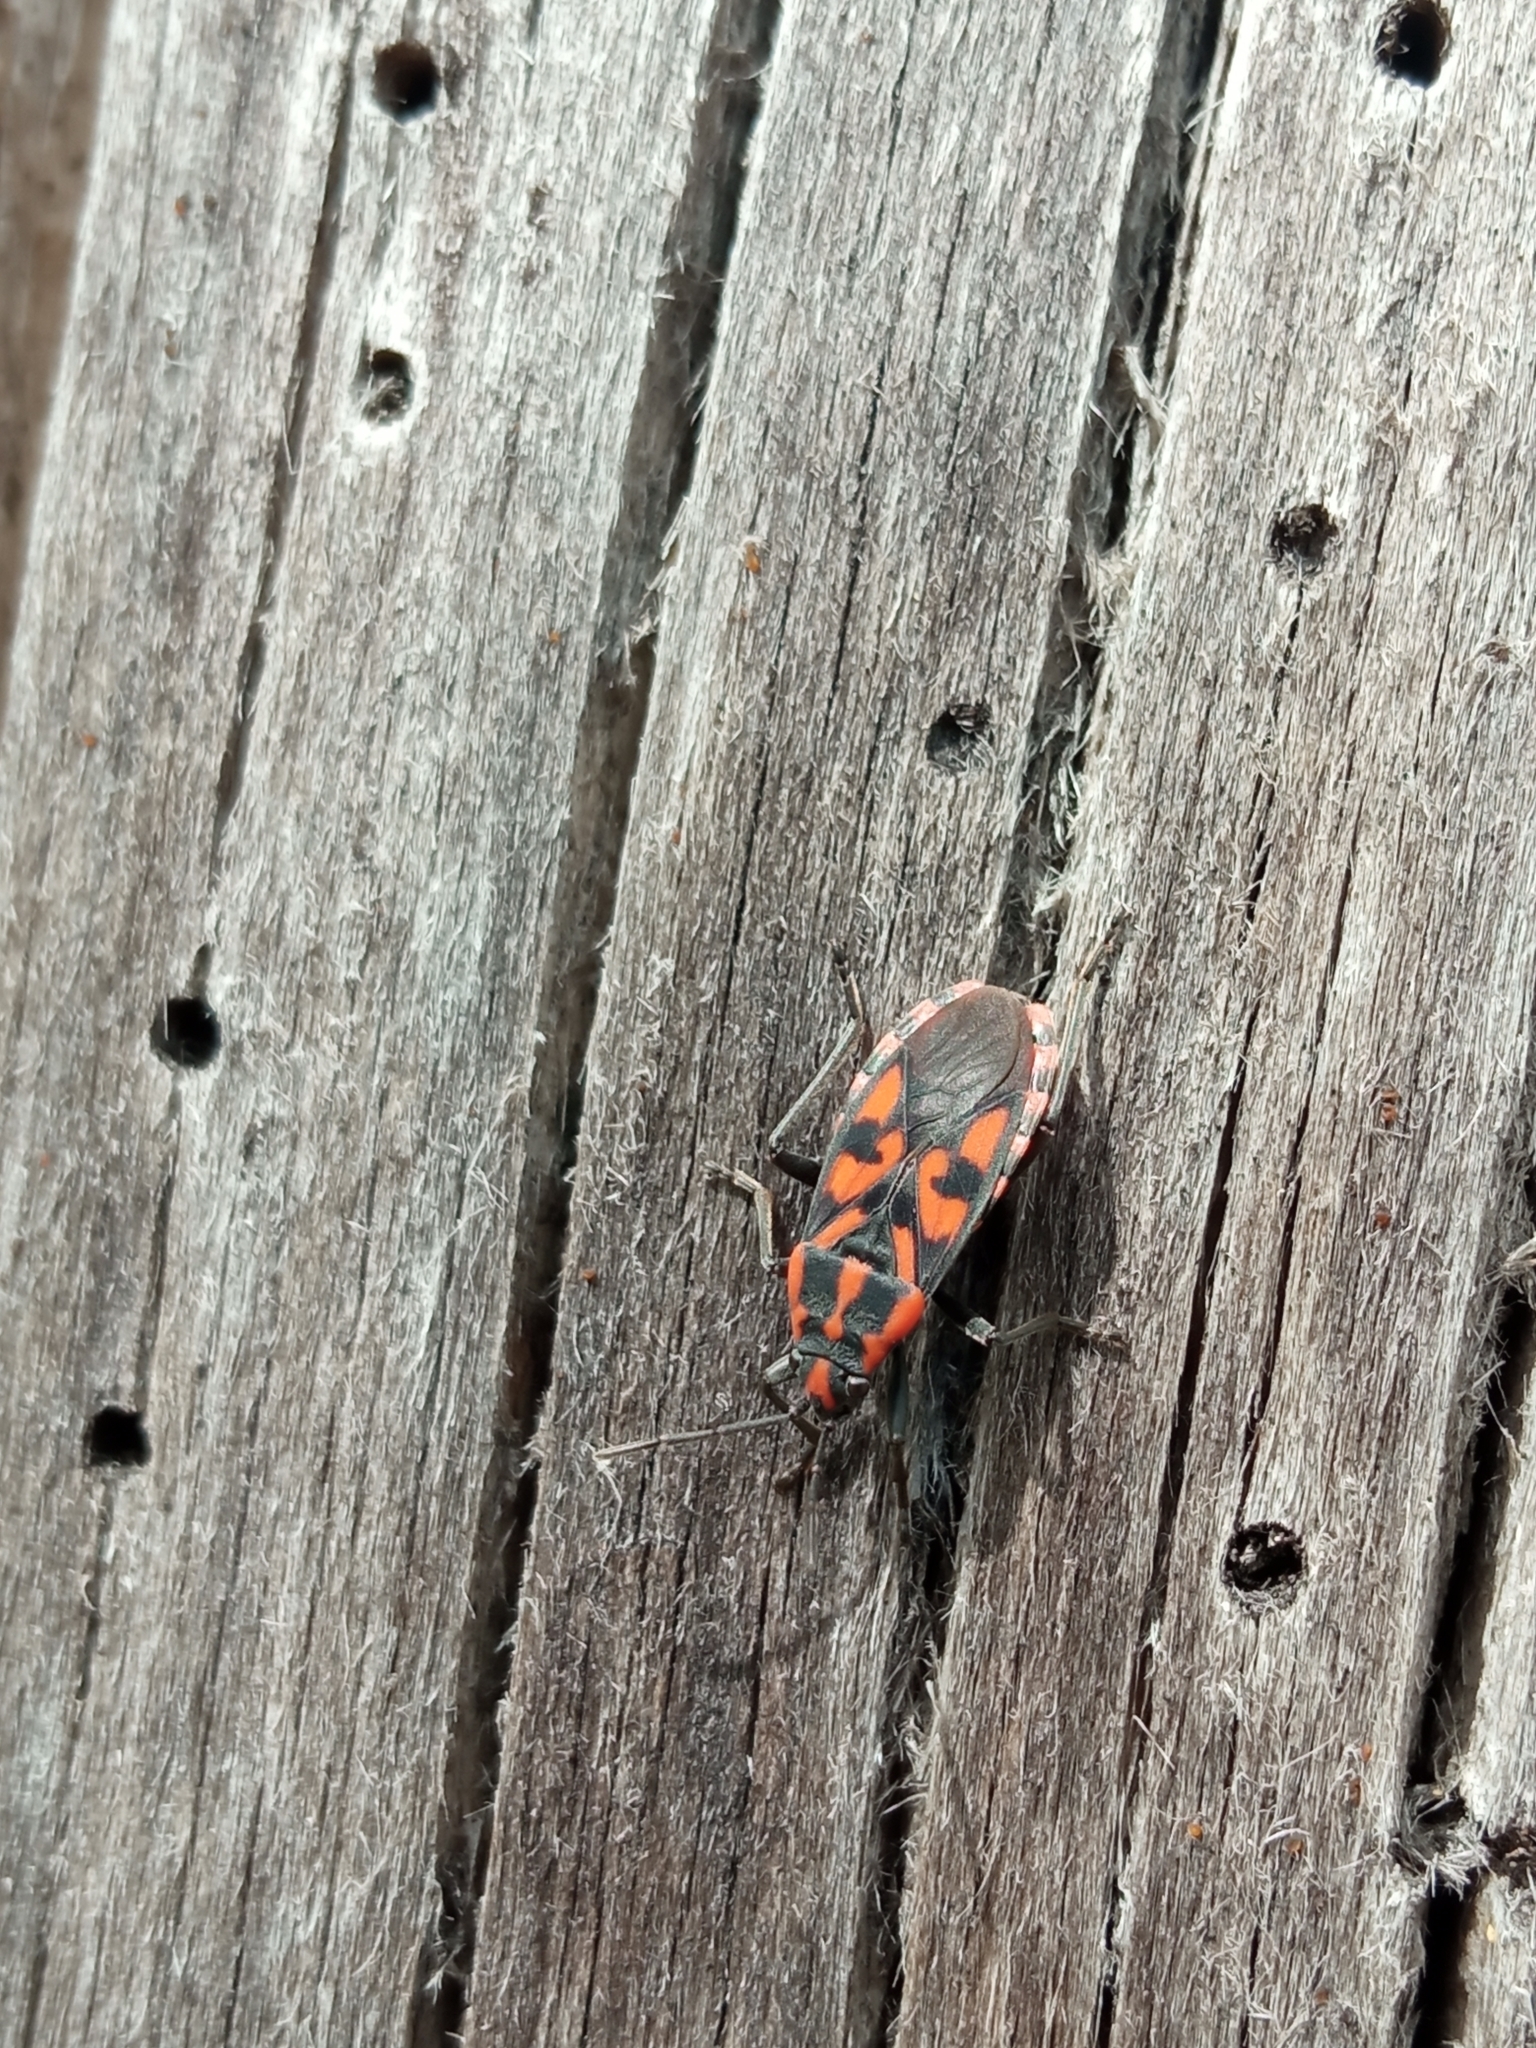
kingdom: Animalia
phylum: Arthropoda
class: Insecta
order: Hemiptera
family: Lygaeidae
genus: Spilostethus
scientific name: Spilostethus saxatilis
